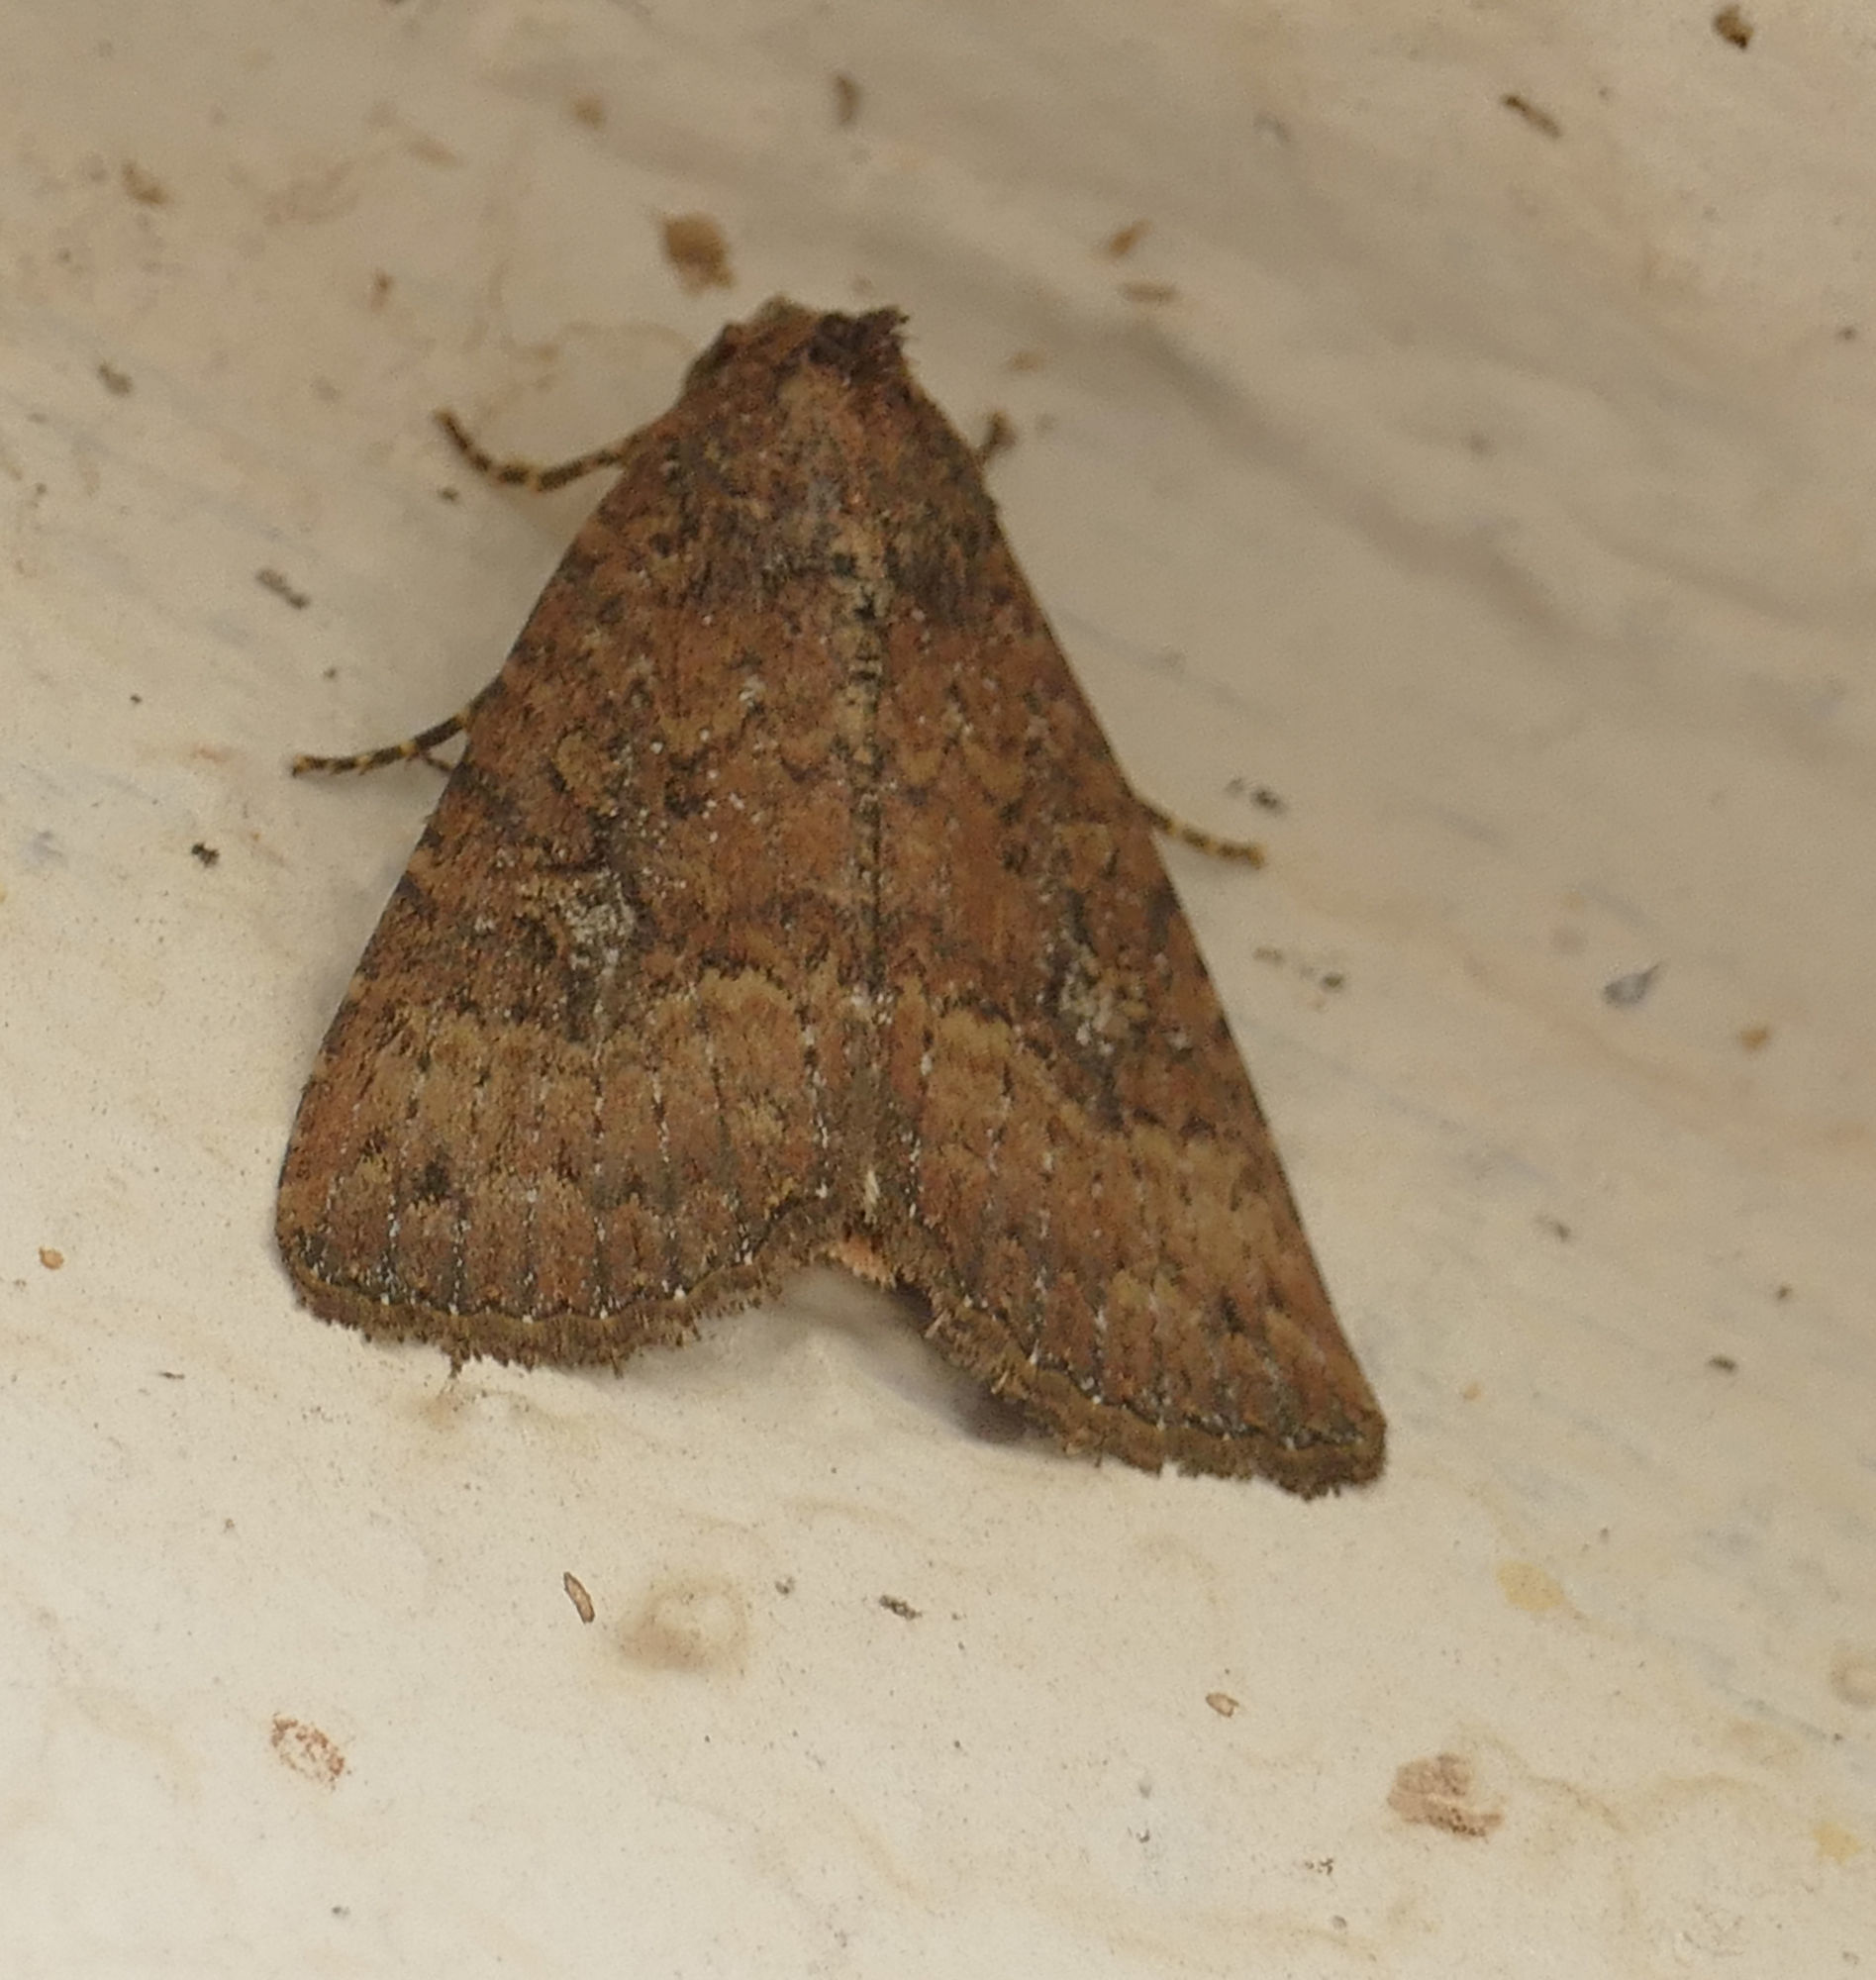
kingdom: Animalia
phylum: Arthropoda
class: Insecta
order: Lepidoptera
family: Noctuidae
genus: Condica
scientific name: Condica sutor
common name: Cobbler moth
